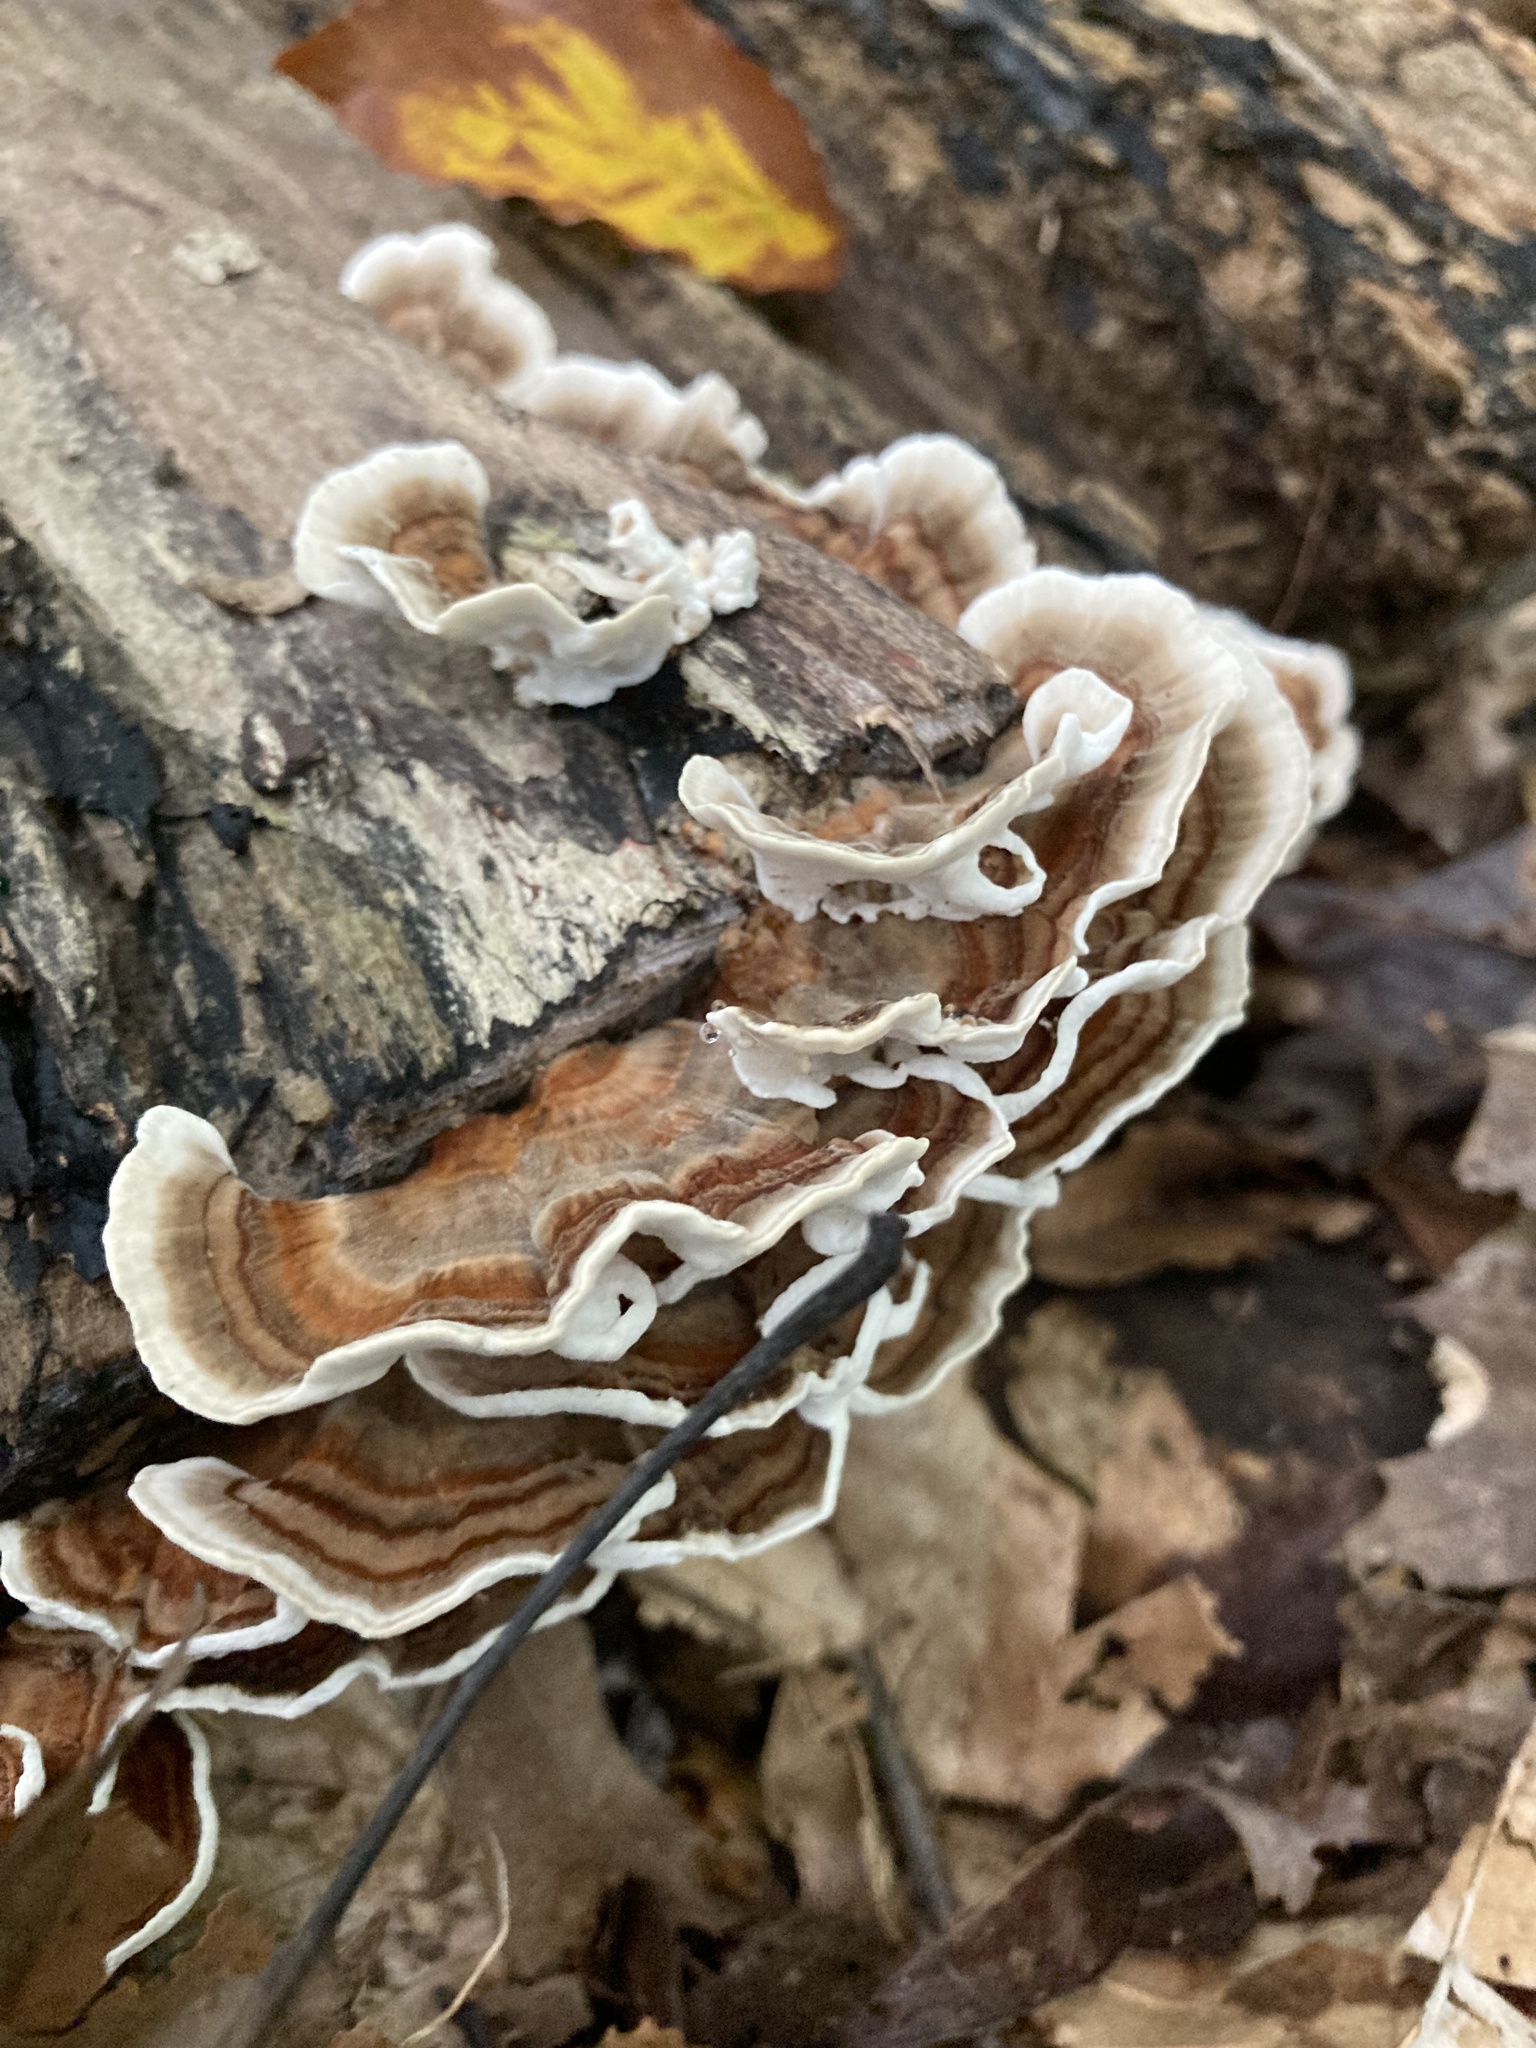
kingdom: Fungi
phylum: Basidiomycota
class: Agaricomycetes
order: Polyporales
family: Polyporaceae
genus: Trametes
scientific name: Trametes versicolor
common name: Turkeytail
